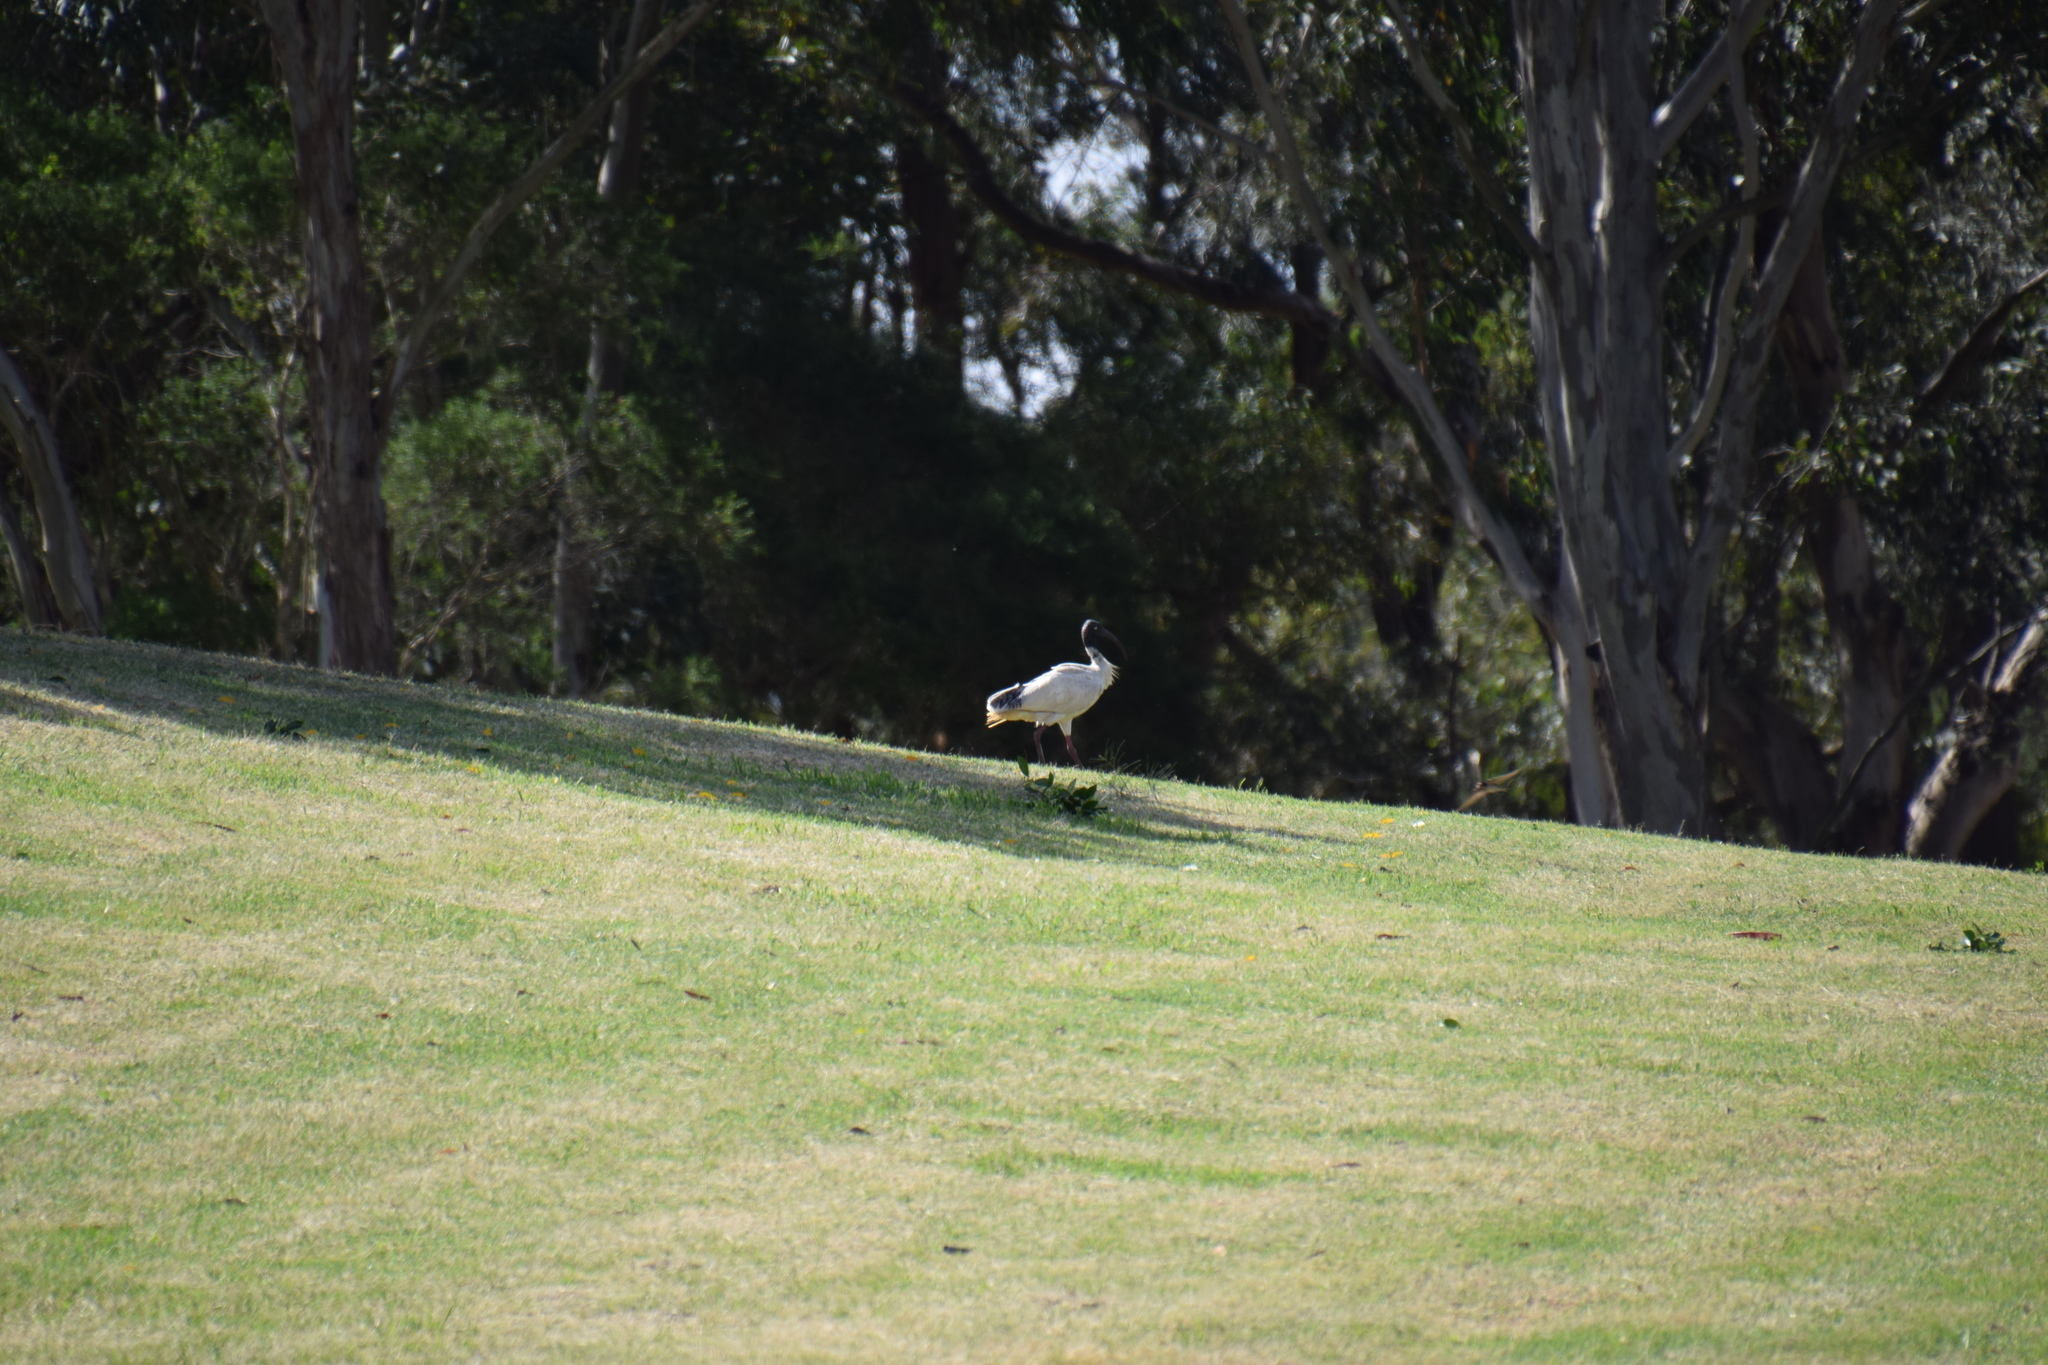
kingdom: Animalia
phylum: Chordata
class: Aves
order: Pelecaniformes
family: Threskiornithidae
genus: Threskiornis
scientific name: Threskiornis molucca
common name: Australian white ibis
